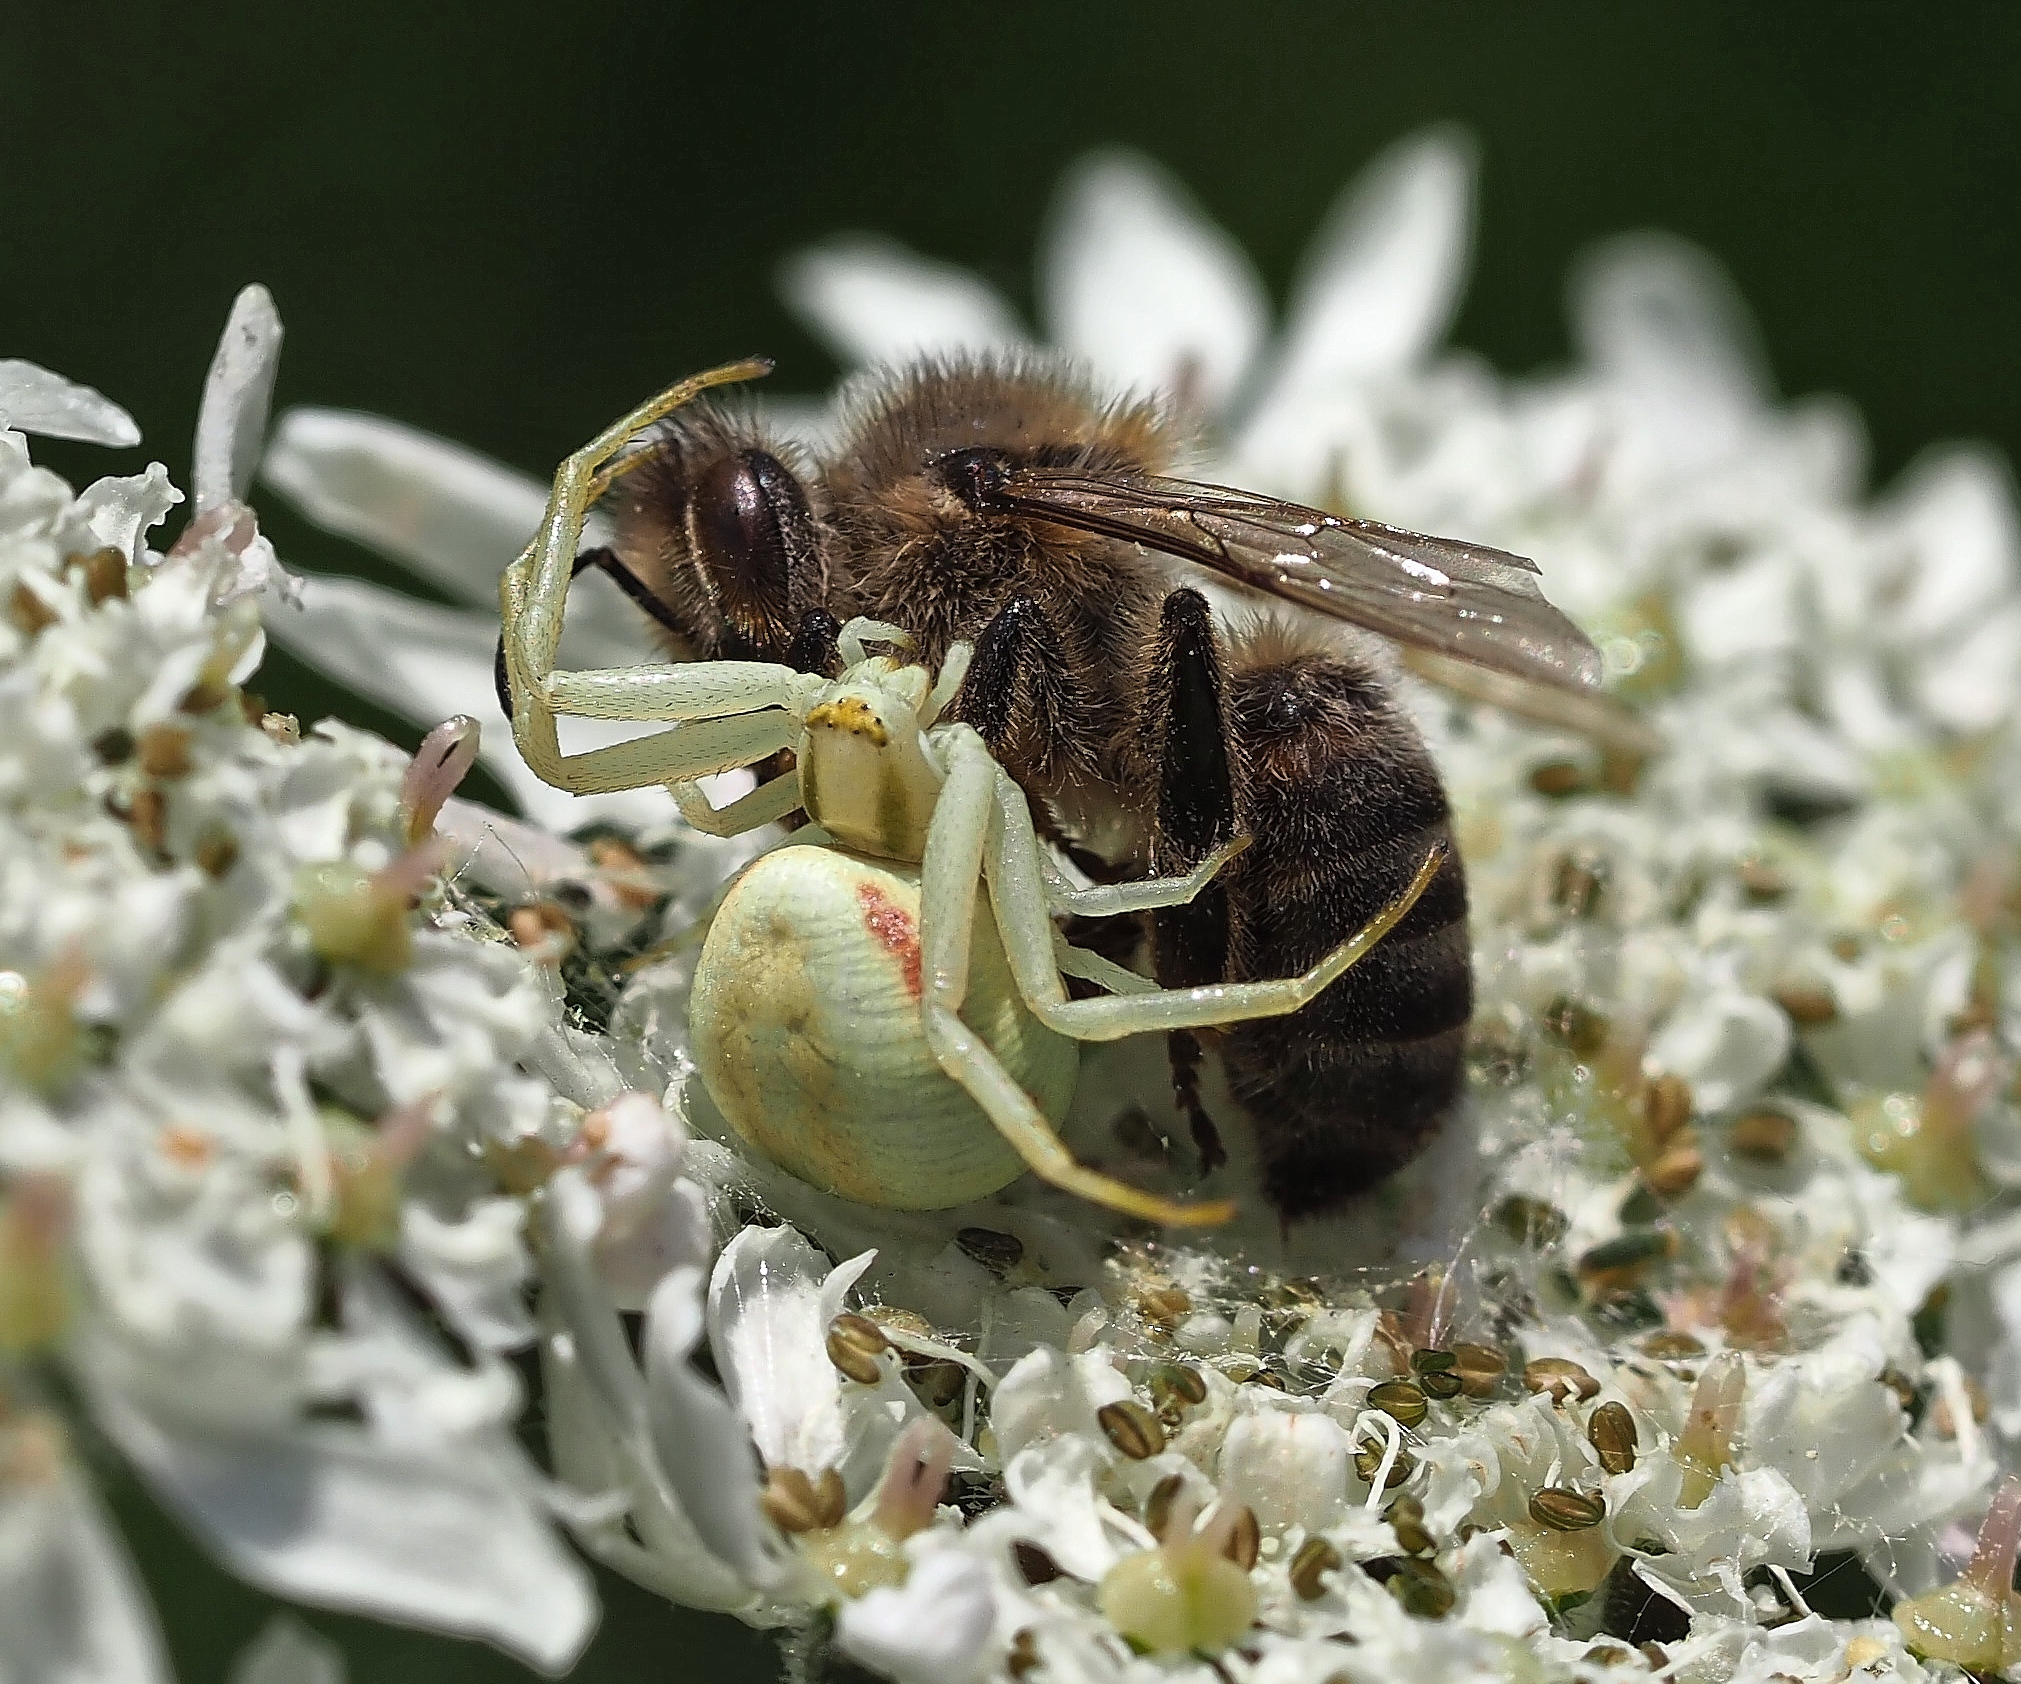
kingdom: Animalia
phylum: Arthropoda
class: Arachnida
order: Araneae
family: Thomisidae
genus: Misumena
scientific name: Misumena vatia
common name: Goldenrod crab spider
